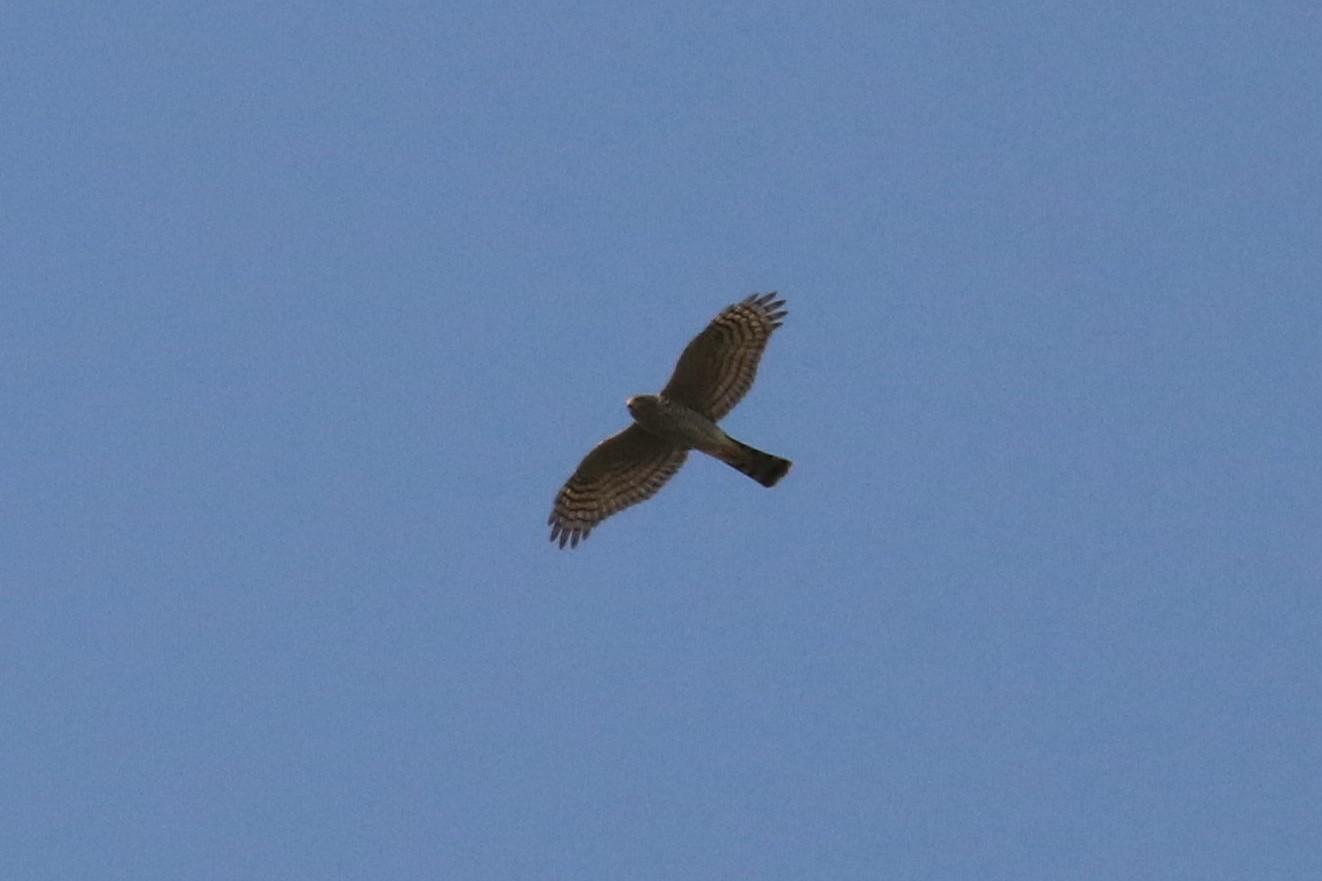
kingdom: Animalia
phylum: Chordata
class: Aves
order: Accipitriformes
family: Accipitridae
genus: Accipiter
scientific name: Accipiter nisus
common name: Eurasian sparrowhawk
